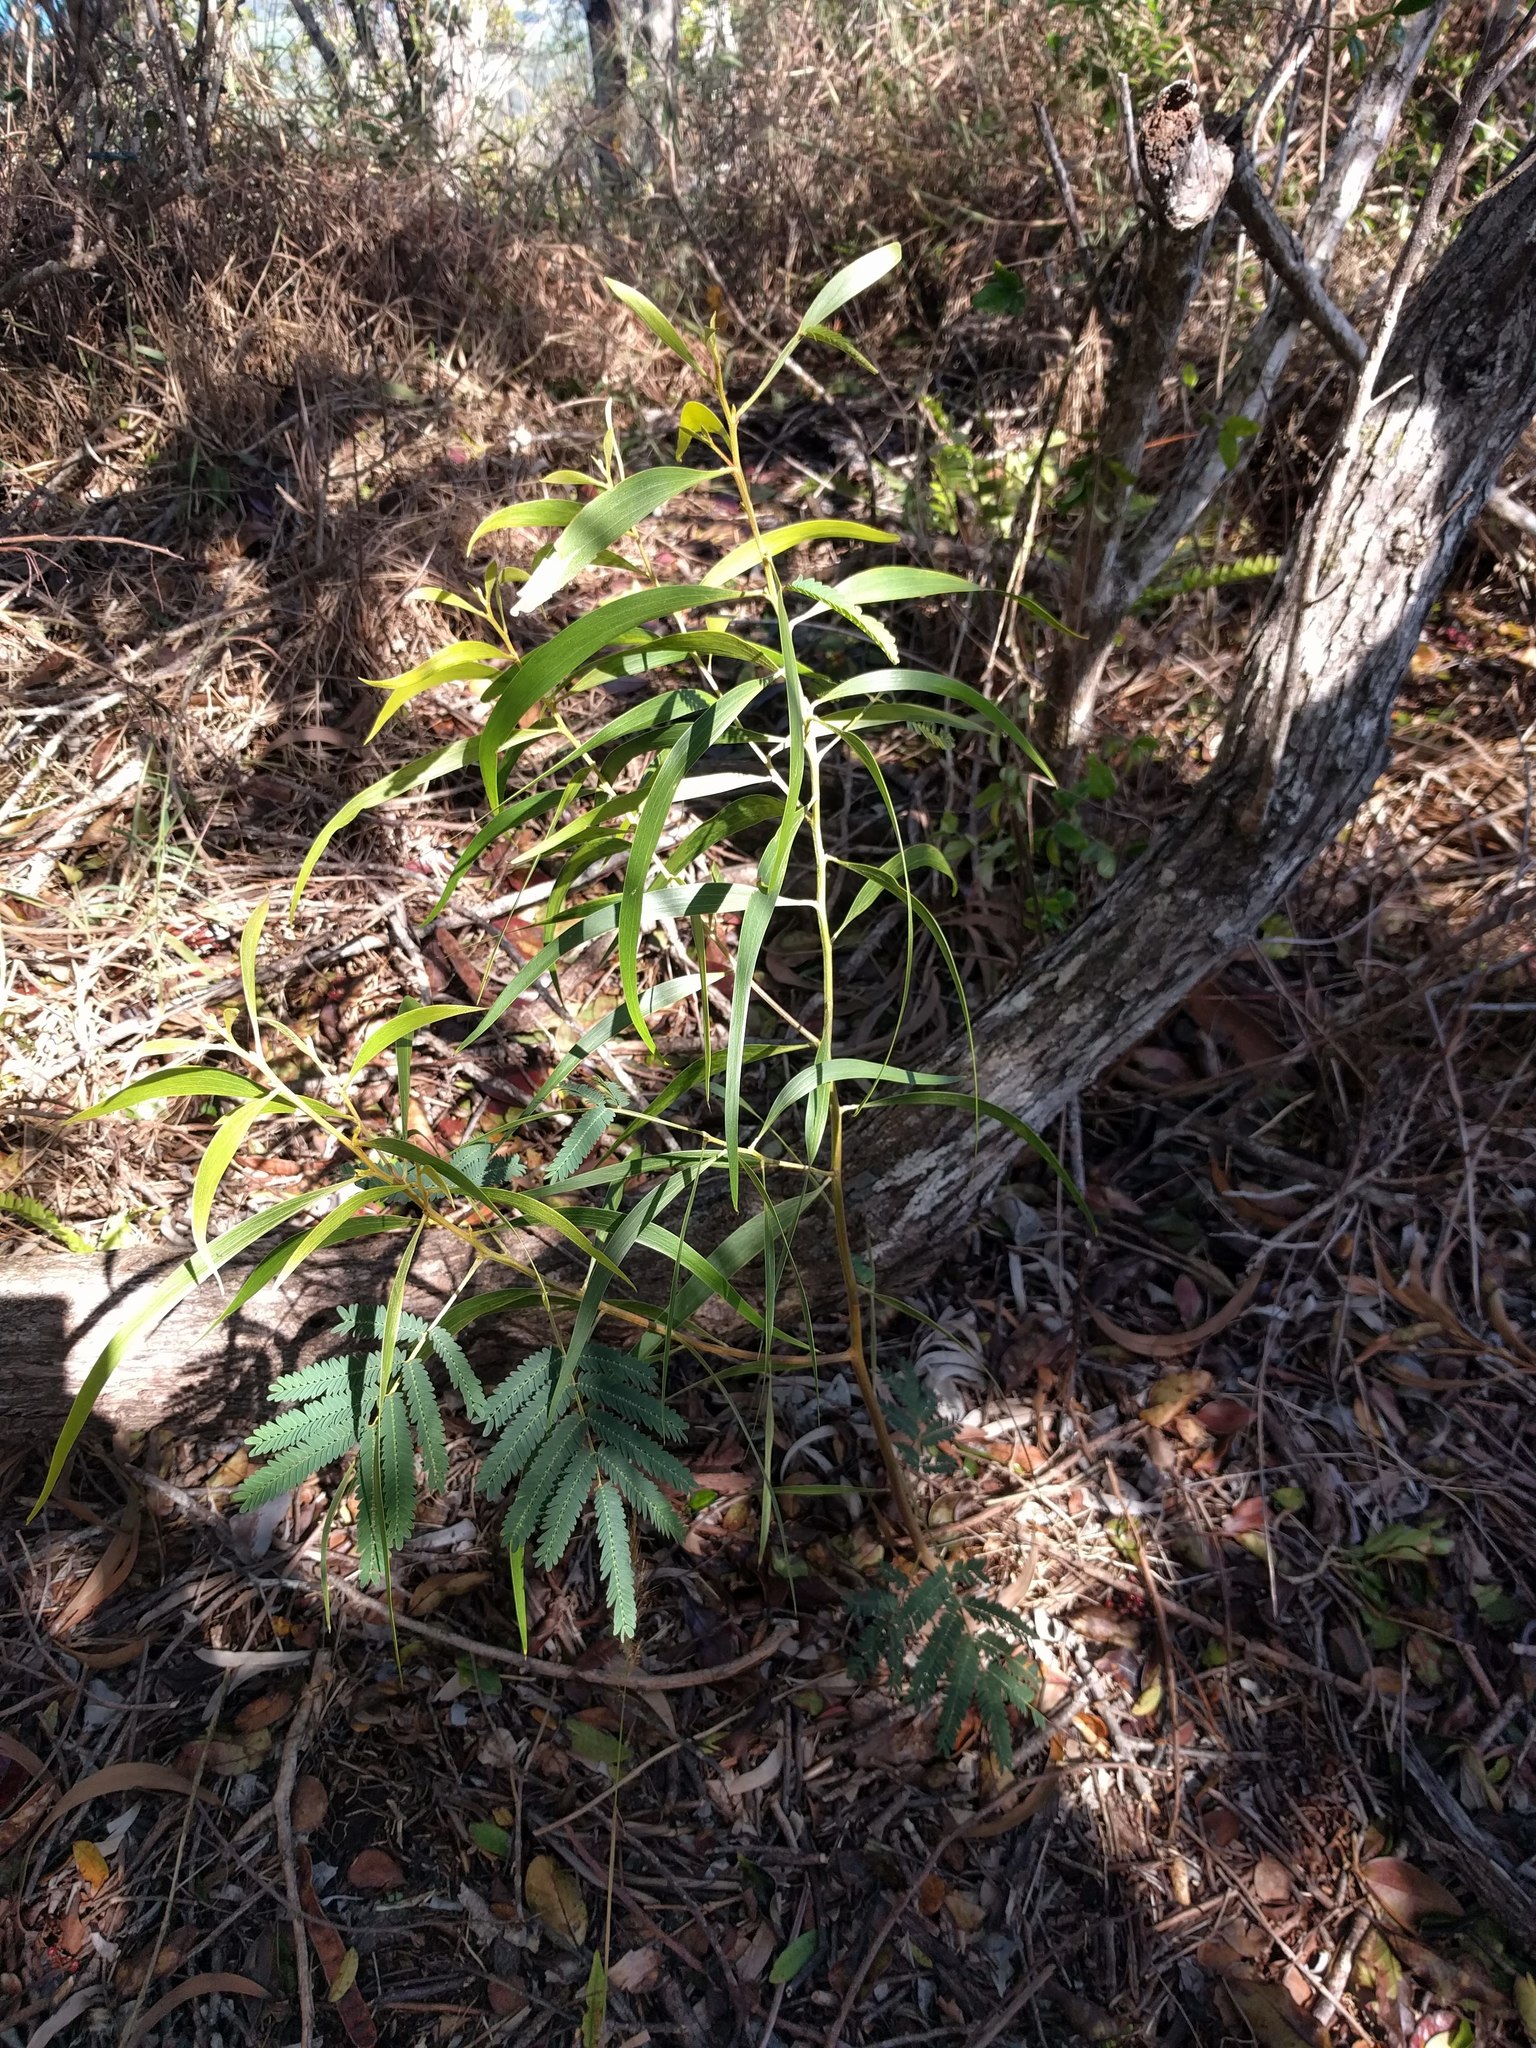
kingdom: Plantae
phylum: Tracheophyta
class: Magnoliopsida
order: Fabales
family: Fabaceae
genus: Acacia
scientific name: Acacia koa
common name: Gray koa
